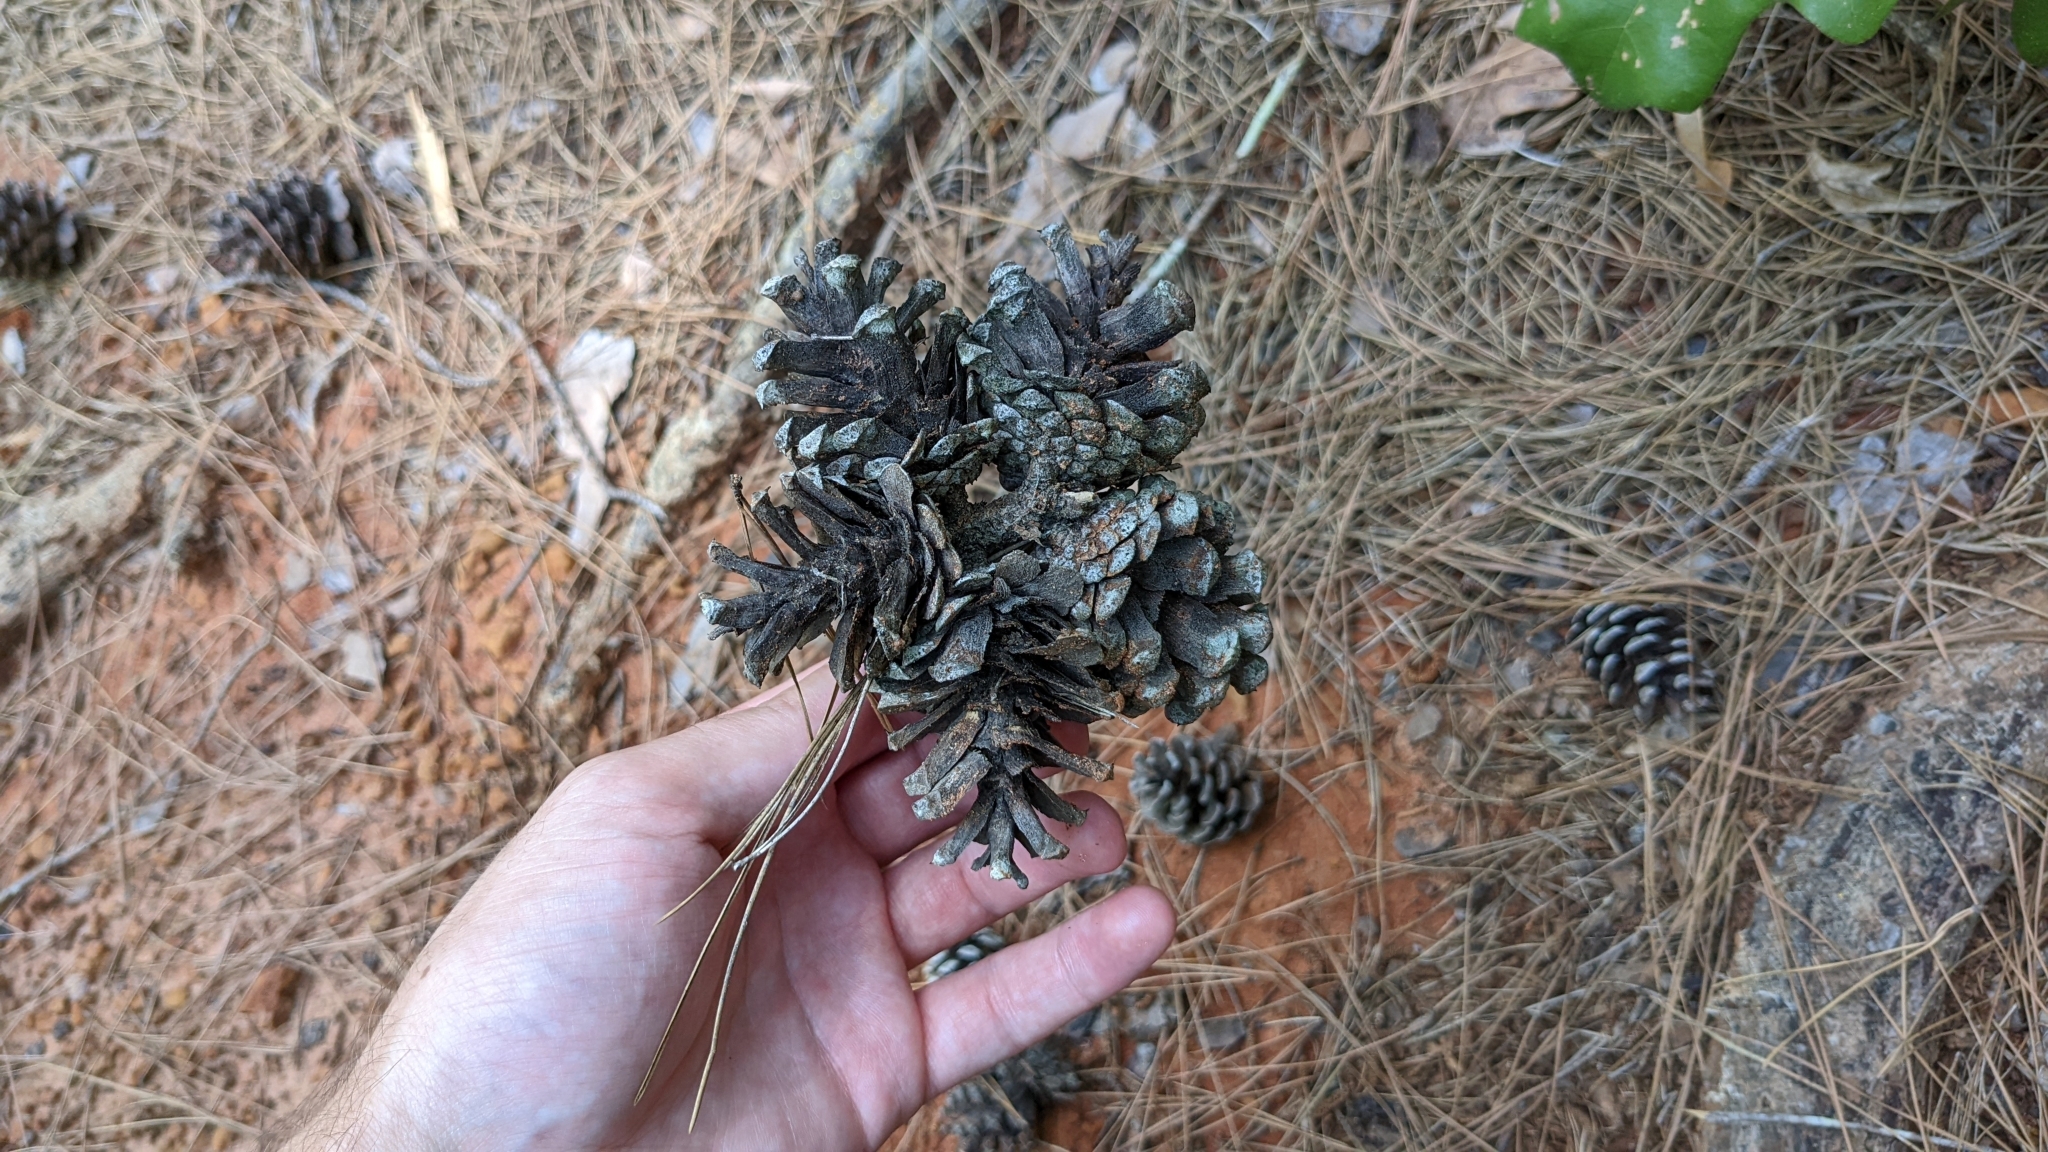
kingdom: Plantae
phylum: Tracheophyta
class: Pinopsida
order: Pinales
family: Pinaceae
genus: Pinus
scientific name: Pinus echinata
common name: Shortleaf pine
